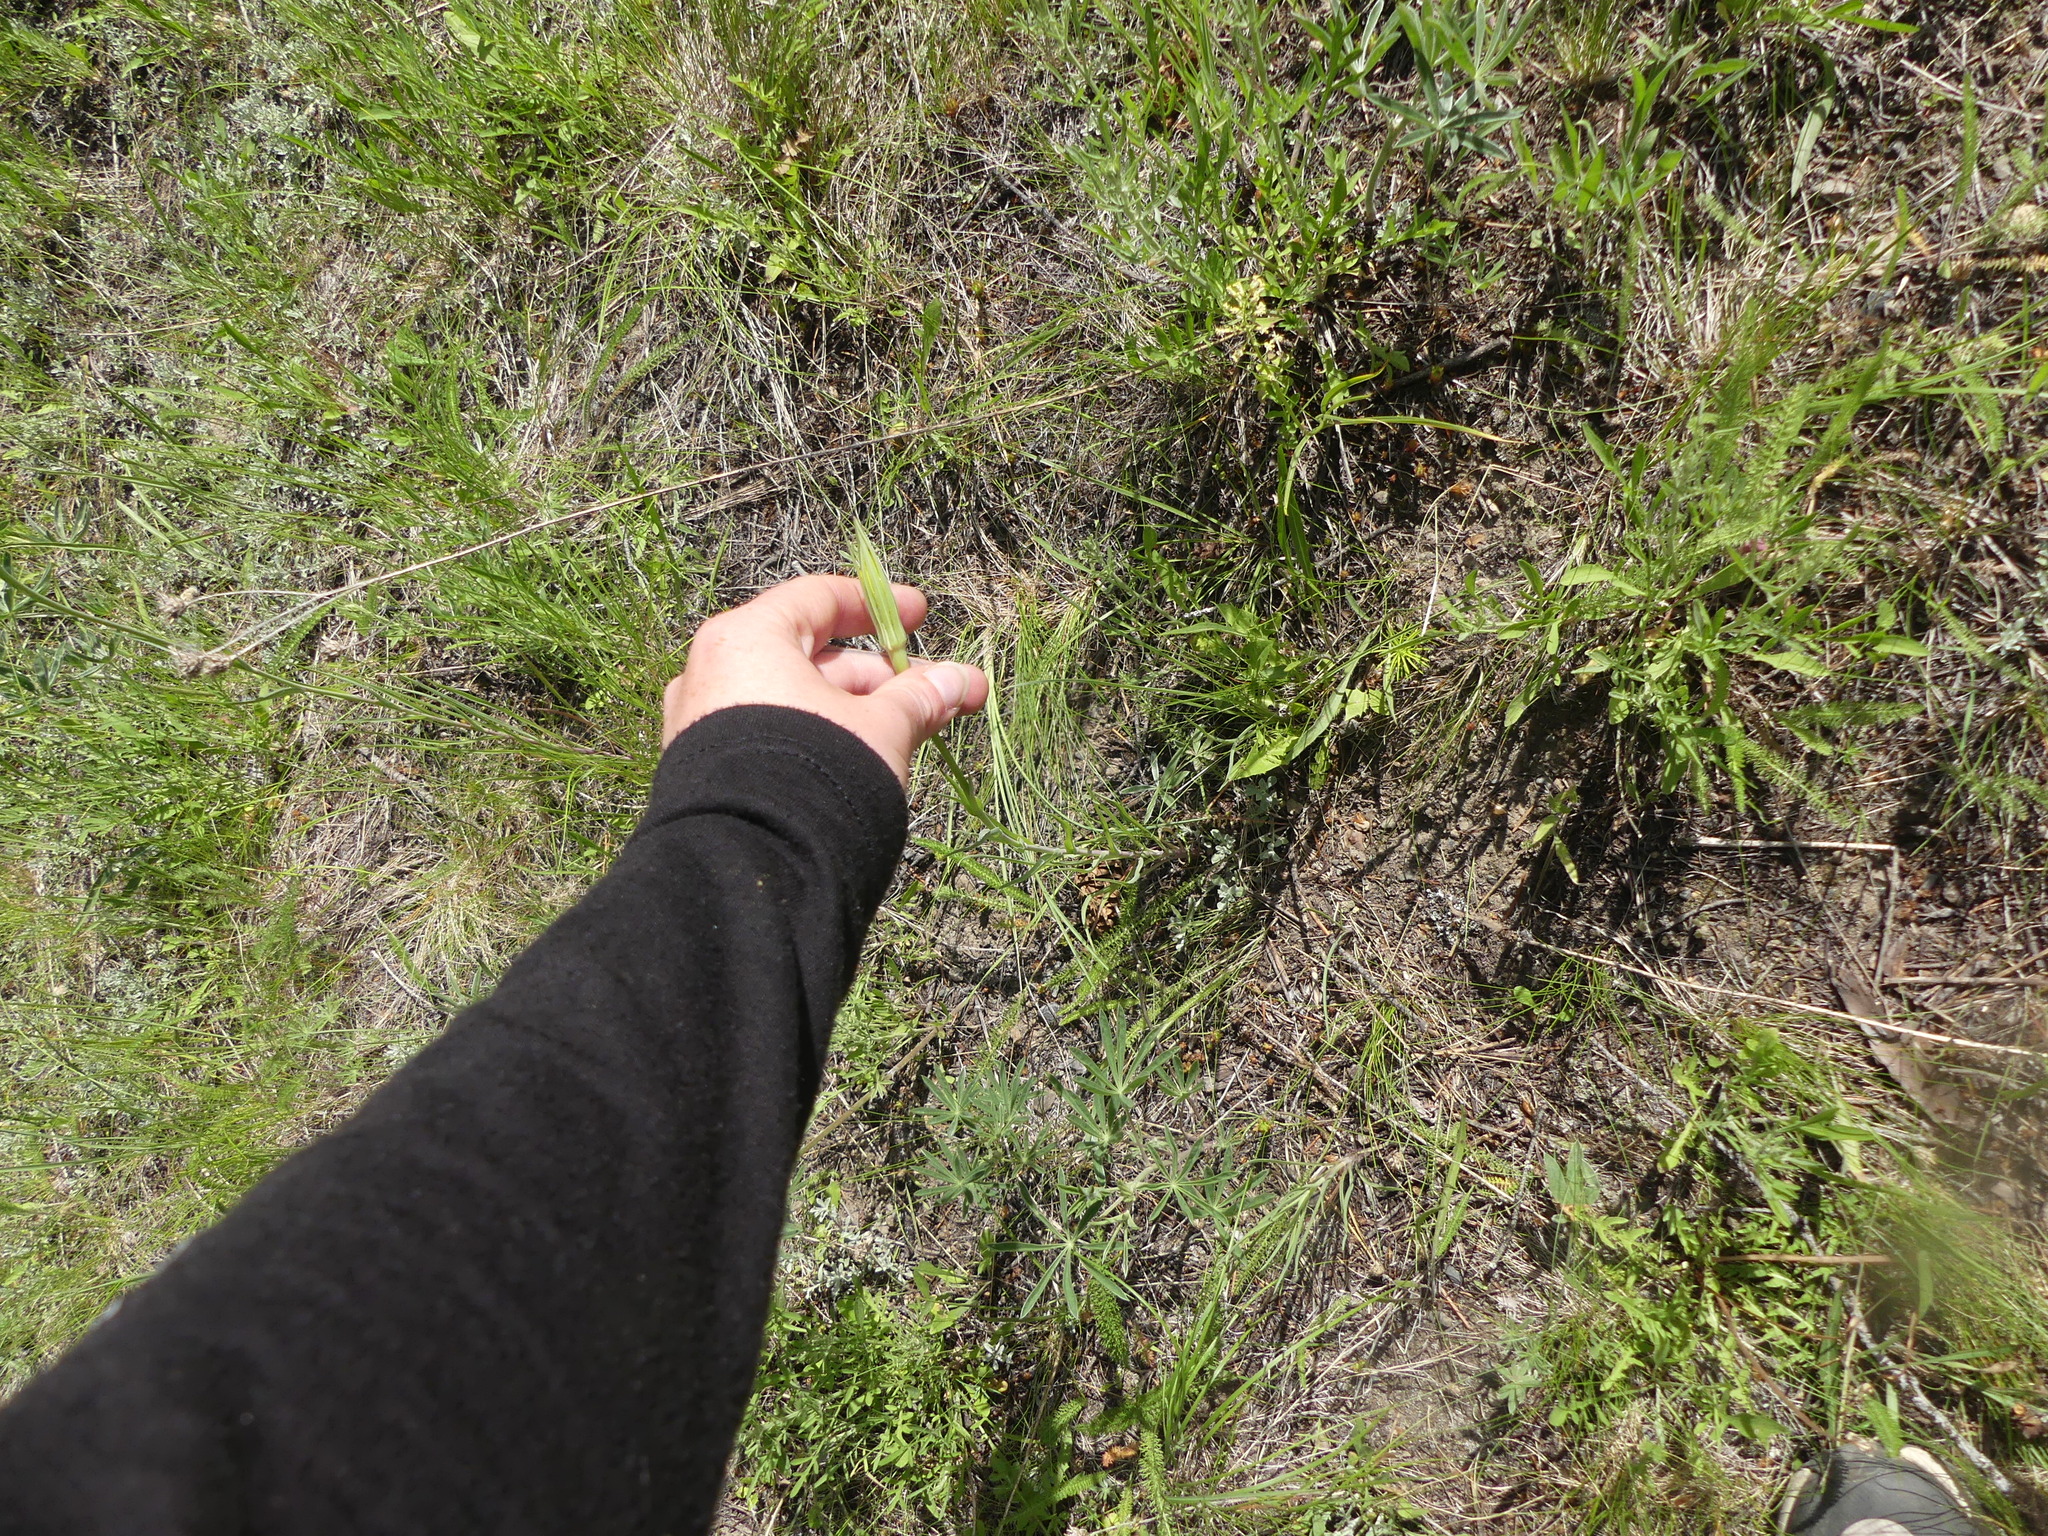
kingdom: Plantae
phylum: Tracheophyta
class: Magnoliopsida
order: Asterales
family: Asteraceae
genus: Tragopogon
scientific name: Tragopogon dubius
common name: Yellow salsify
